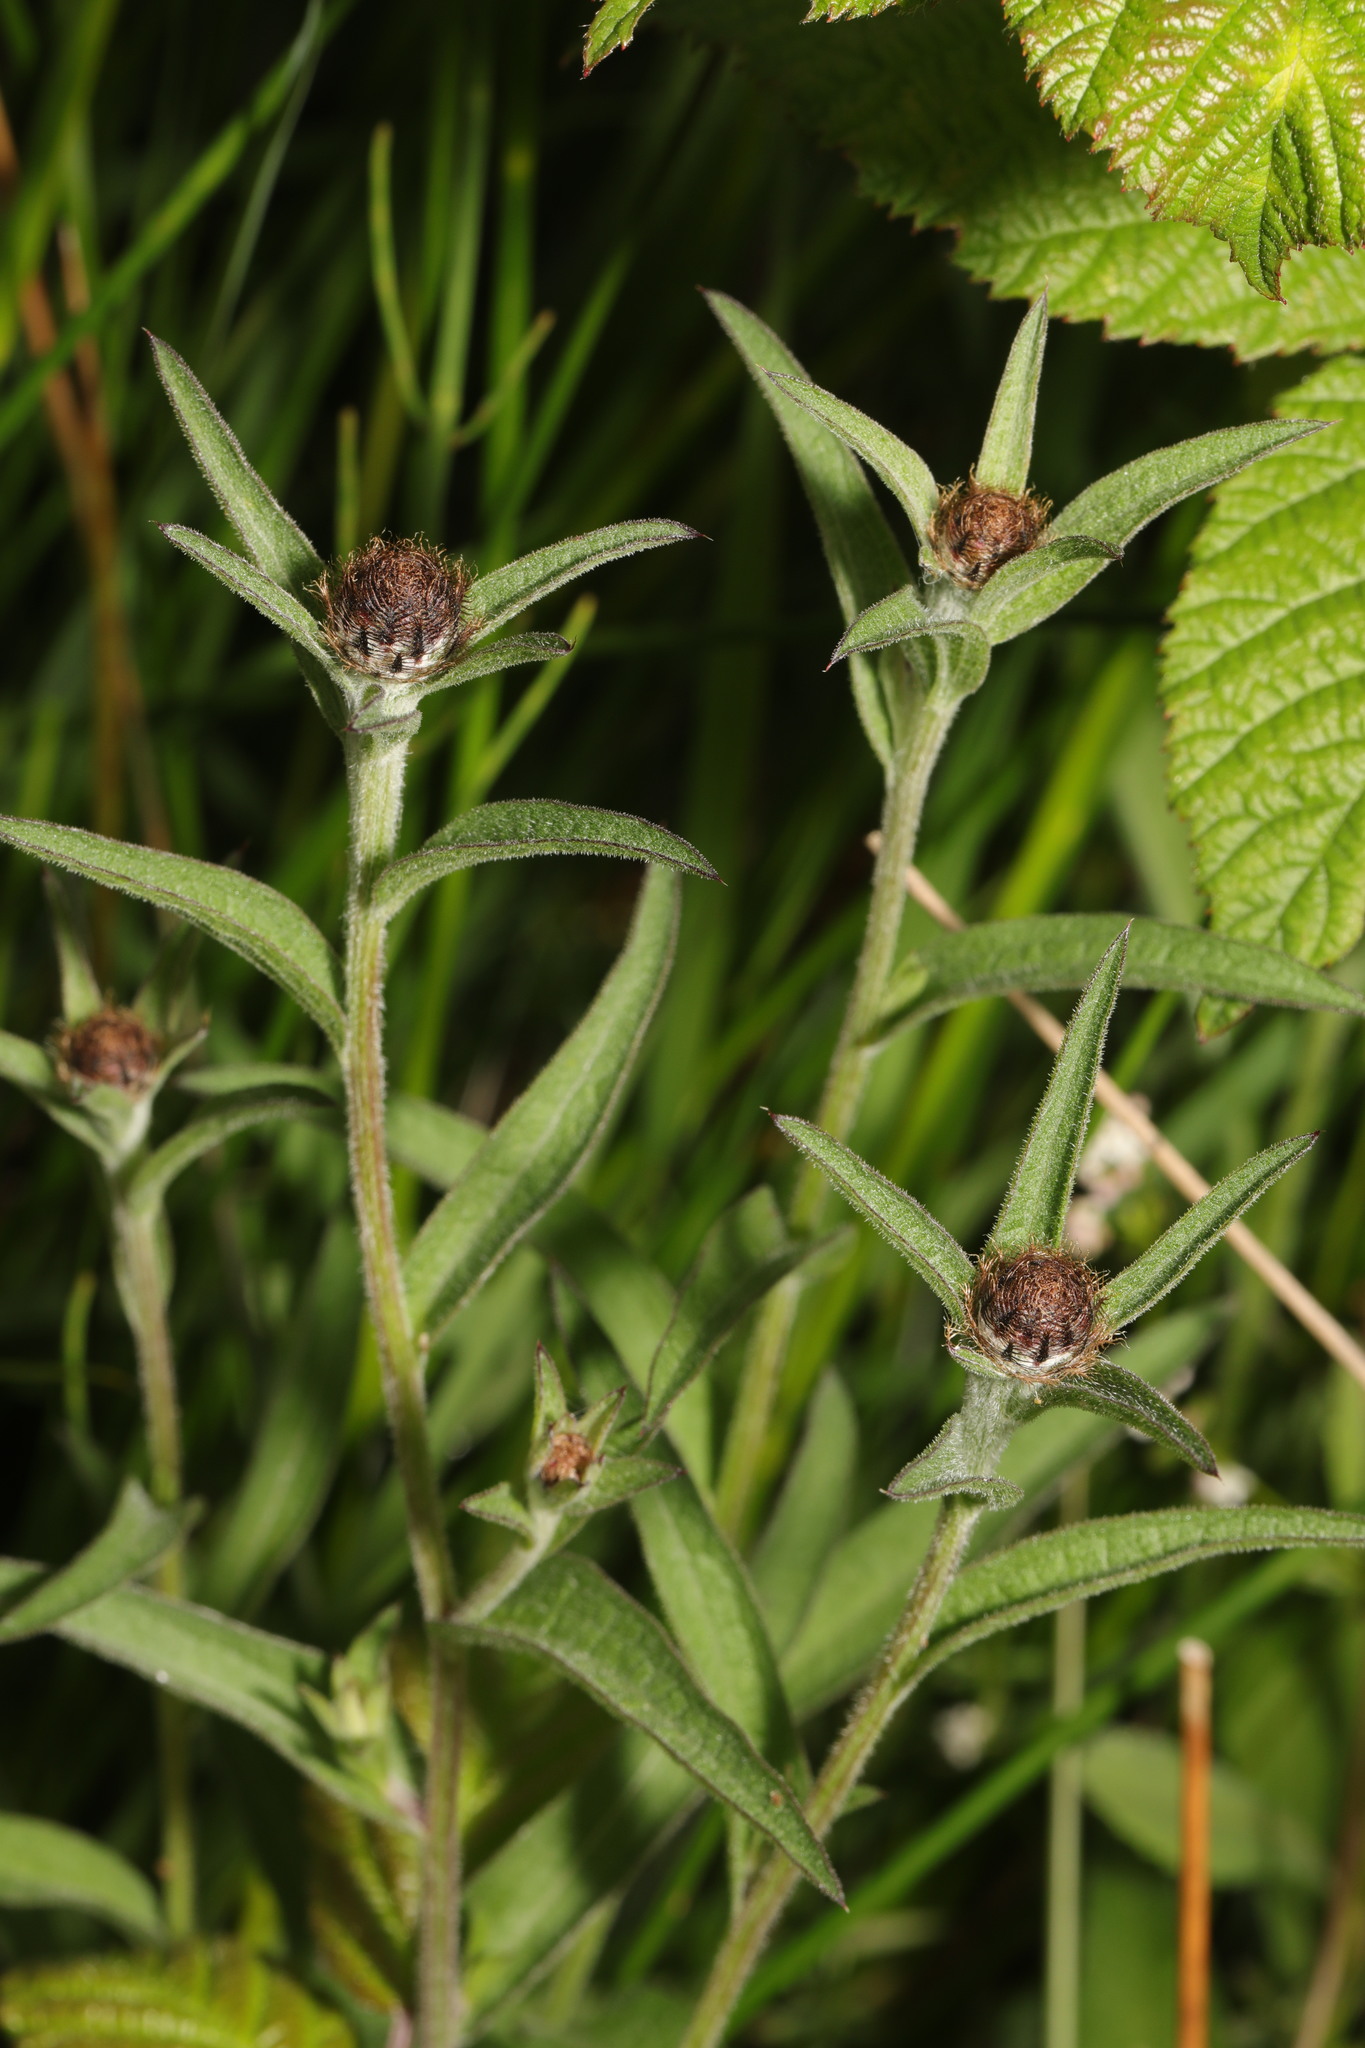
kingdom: Plantae
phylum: Tracheophyta
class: Magnoliopsida
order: Asterales
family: Asteraceae
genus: Centaurea
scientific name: Centaurea nigra
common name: Lesser knapweed
